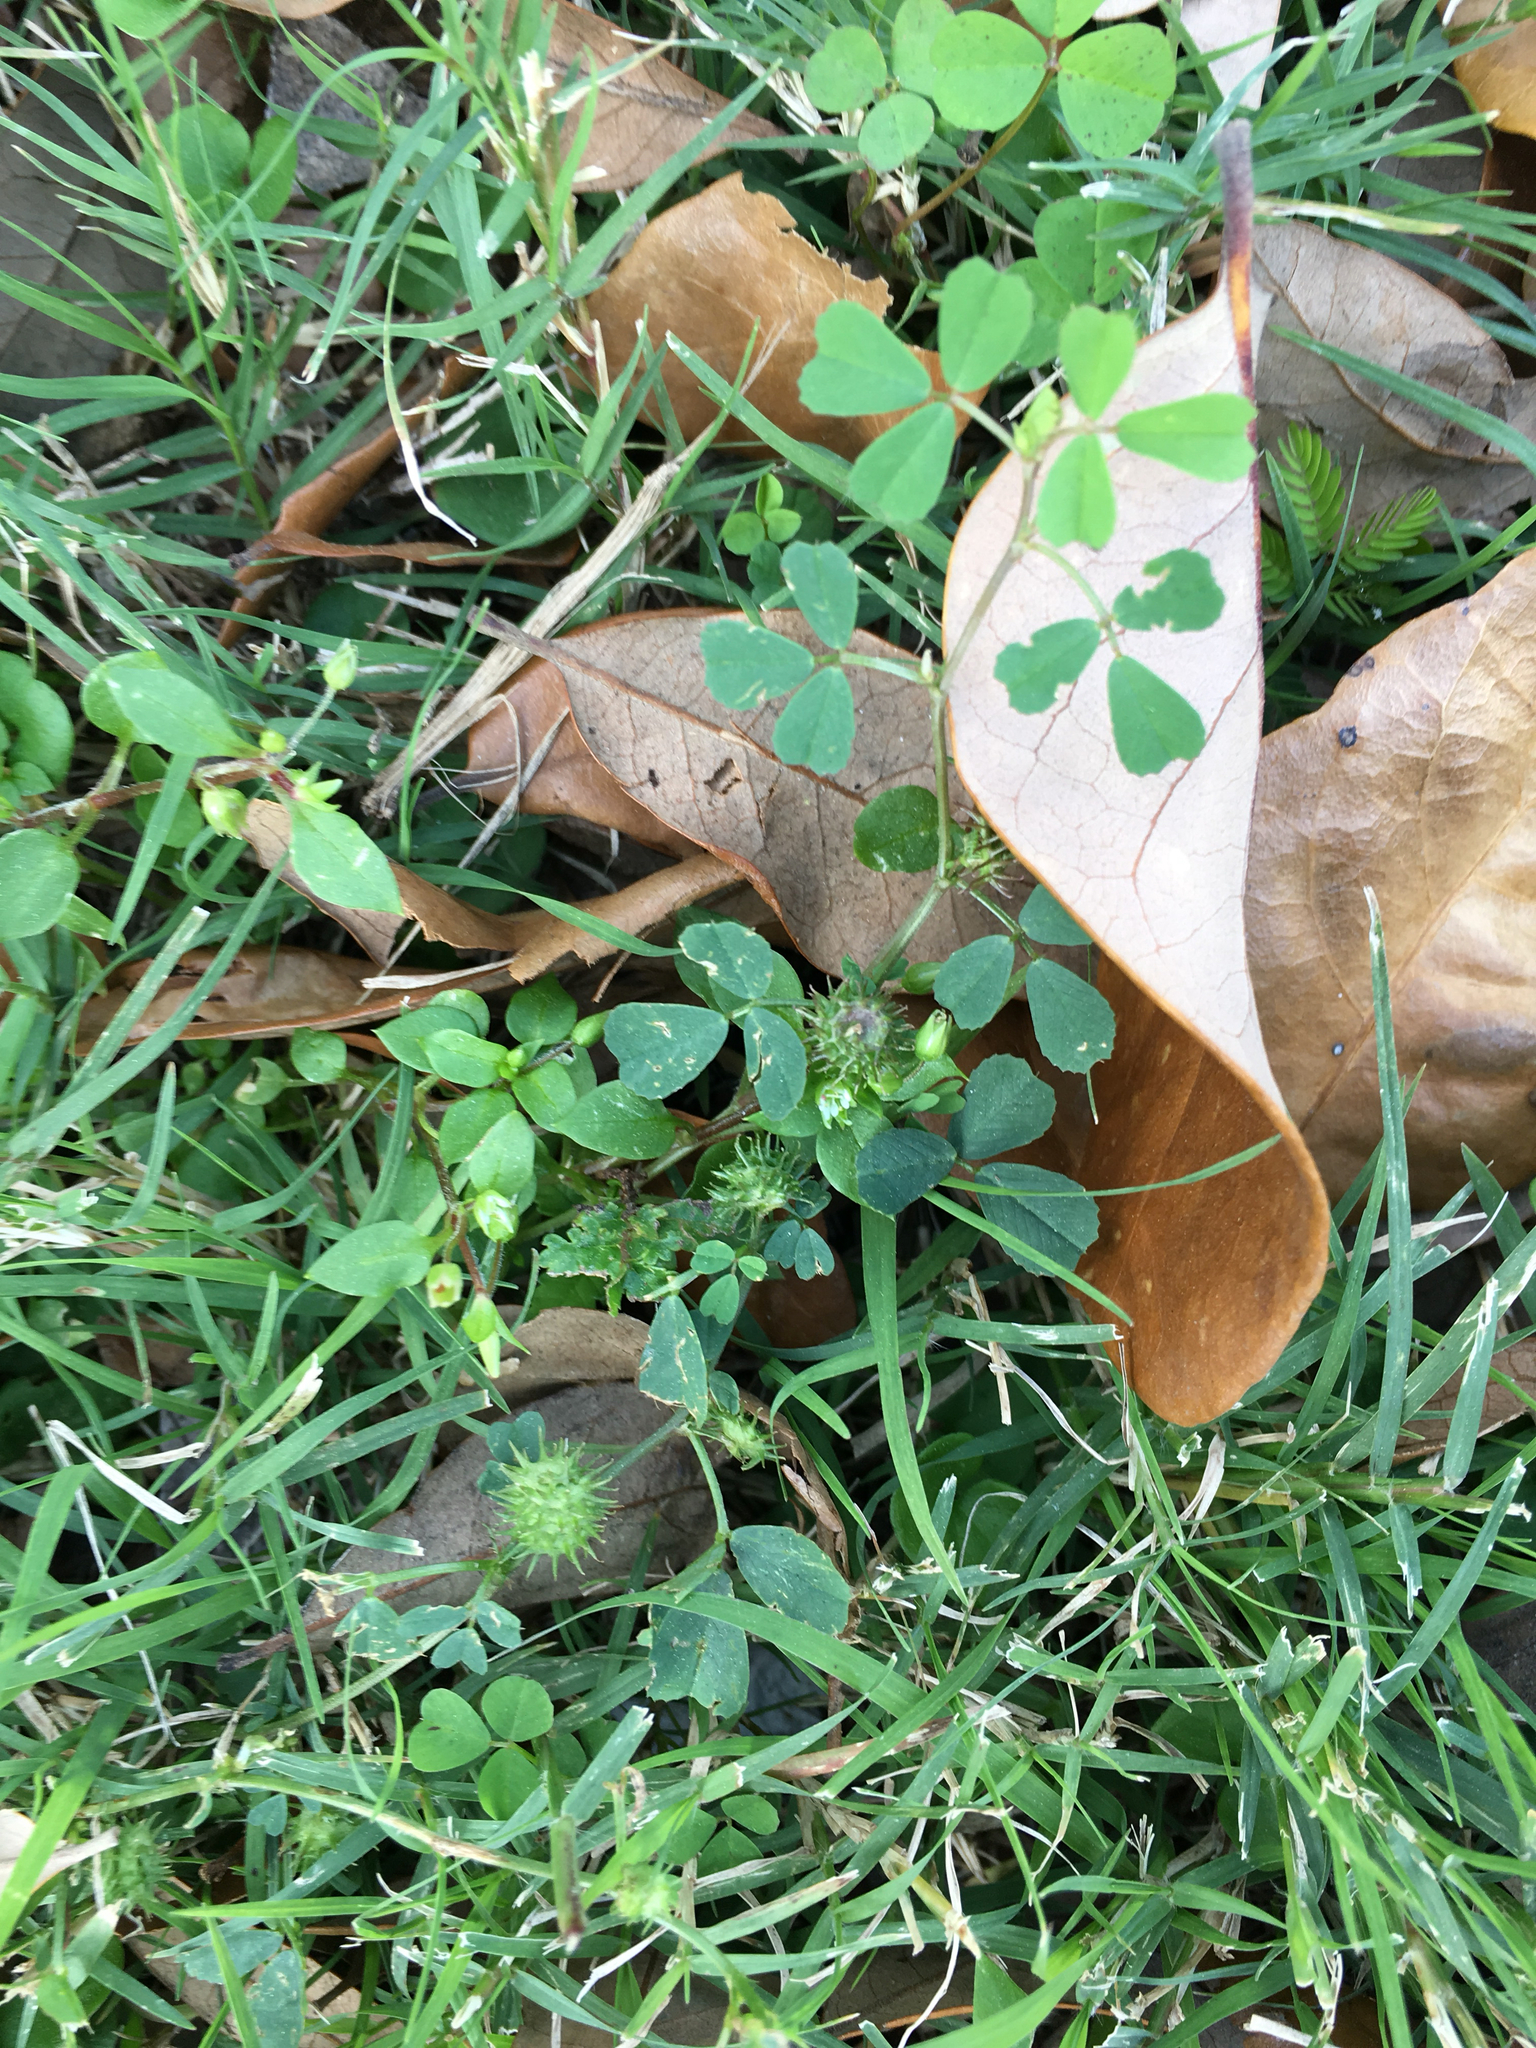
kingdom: Plantae
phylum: Tracheophyta
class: Magnoliopsida
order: Fabales
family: Fabaceae
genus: Medicago
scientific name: Medicago polymorpha
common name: Burclover
